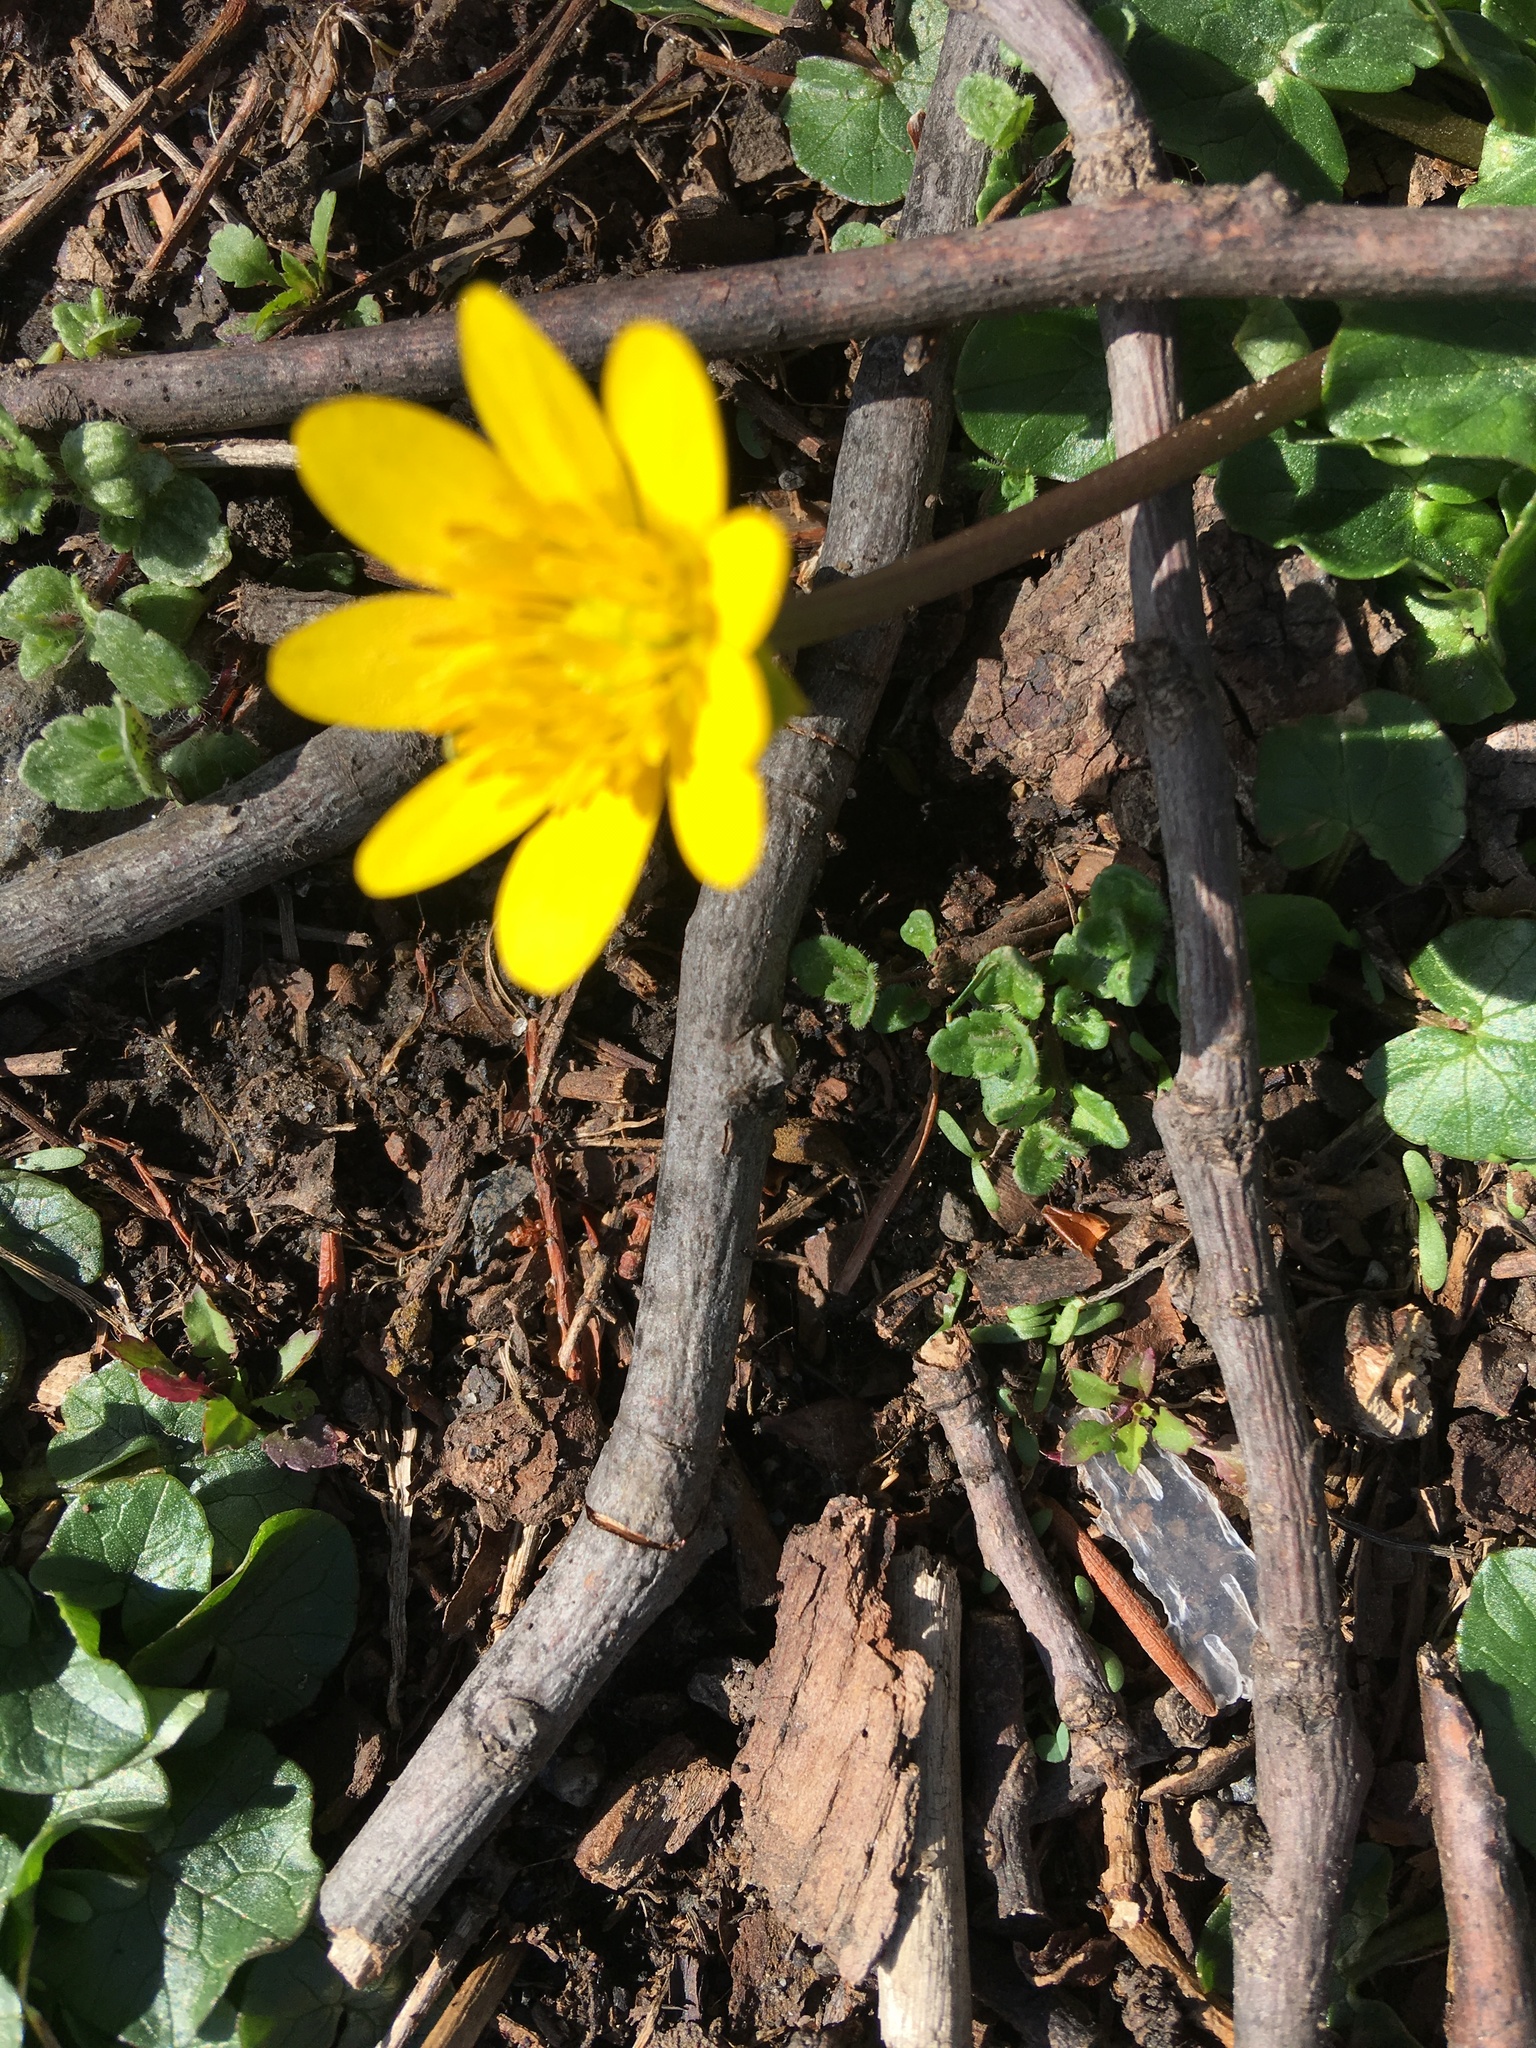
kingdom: Plantae
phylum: Tracheophyta
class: Magnoliopsida
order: Ranunculales
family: Ranunculaceae
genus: Ficaria
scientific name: Ficaria verna
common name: Lesser celandine
